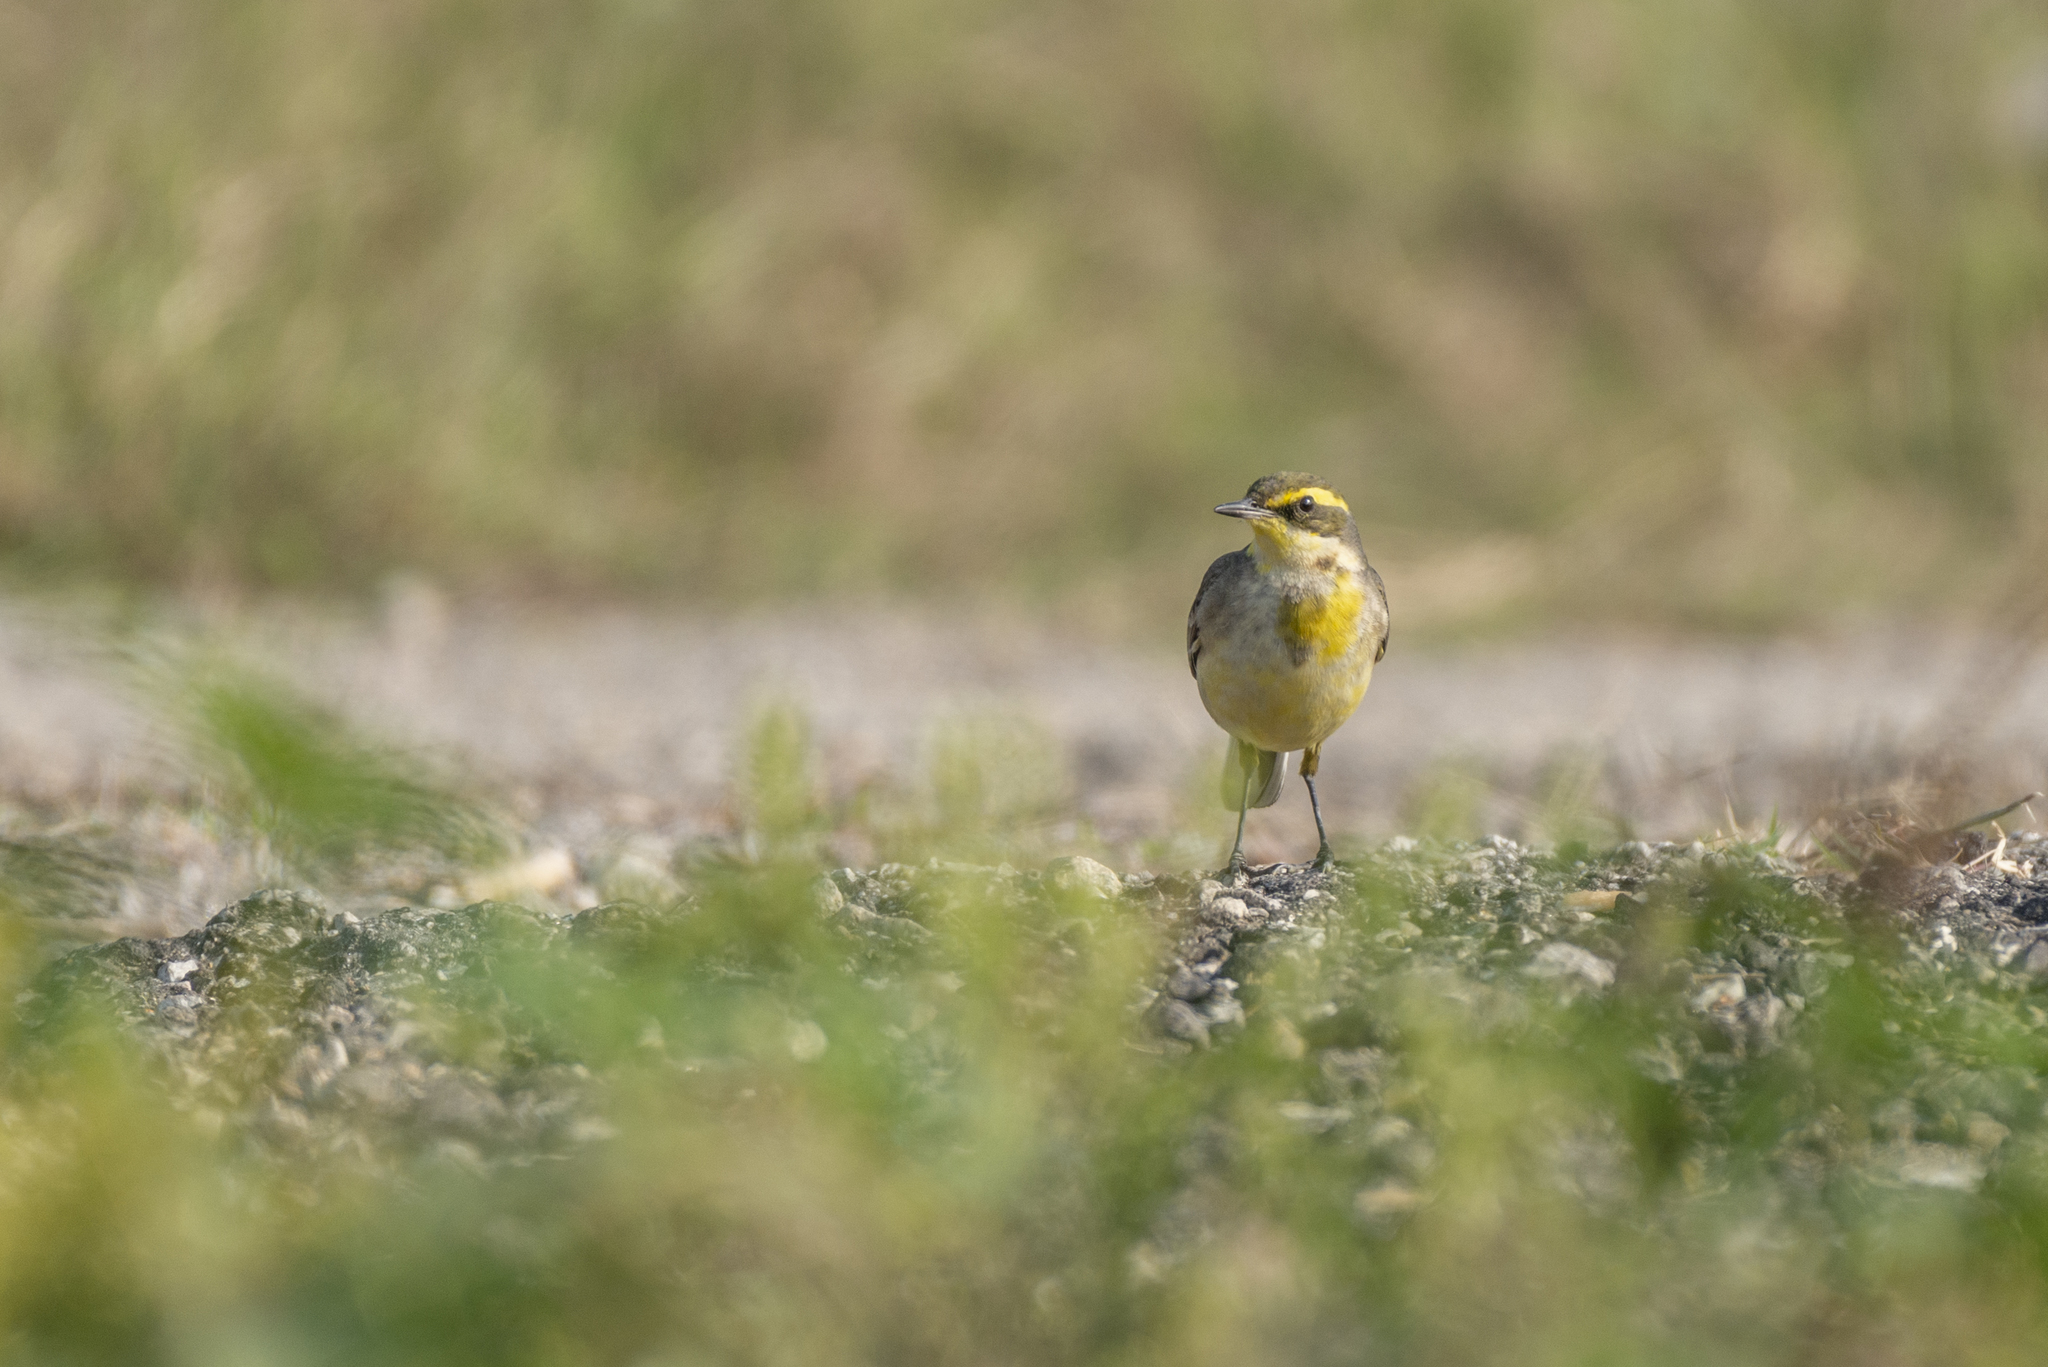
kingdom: Animalia
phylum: Chordata
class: Aves
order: Passeriformes
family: Motacillidae
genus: Motacilla
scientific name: Motacilla tschutschensis
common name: Eastern yellow wagtail
